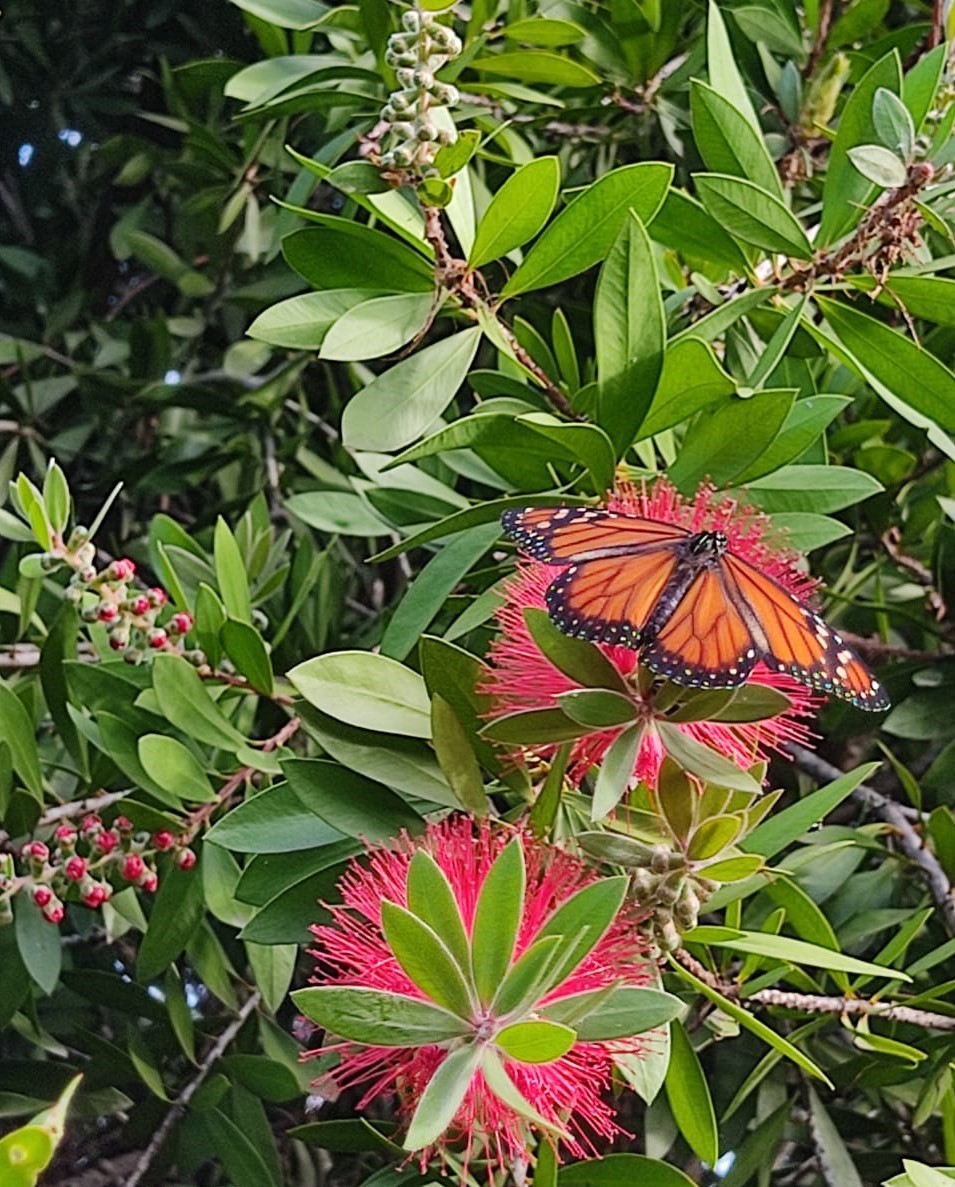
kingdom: Animalia
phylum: Arthropoda
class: Insecta
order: Lepidoptera
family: Nymphalidae
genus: Danaus
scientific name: Danaus erippus
